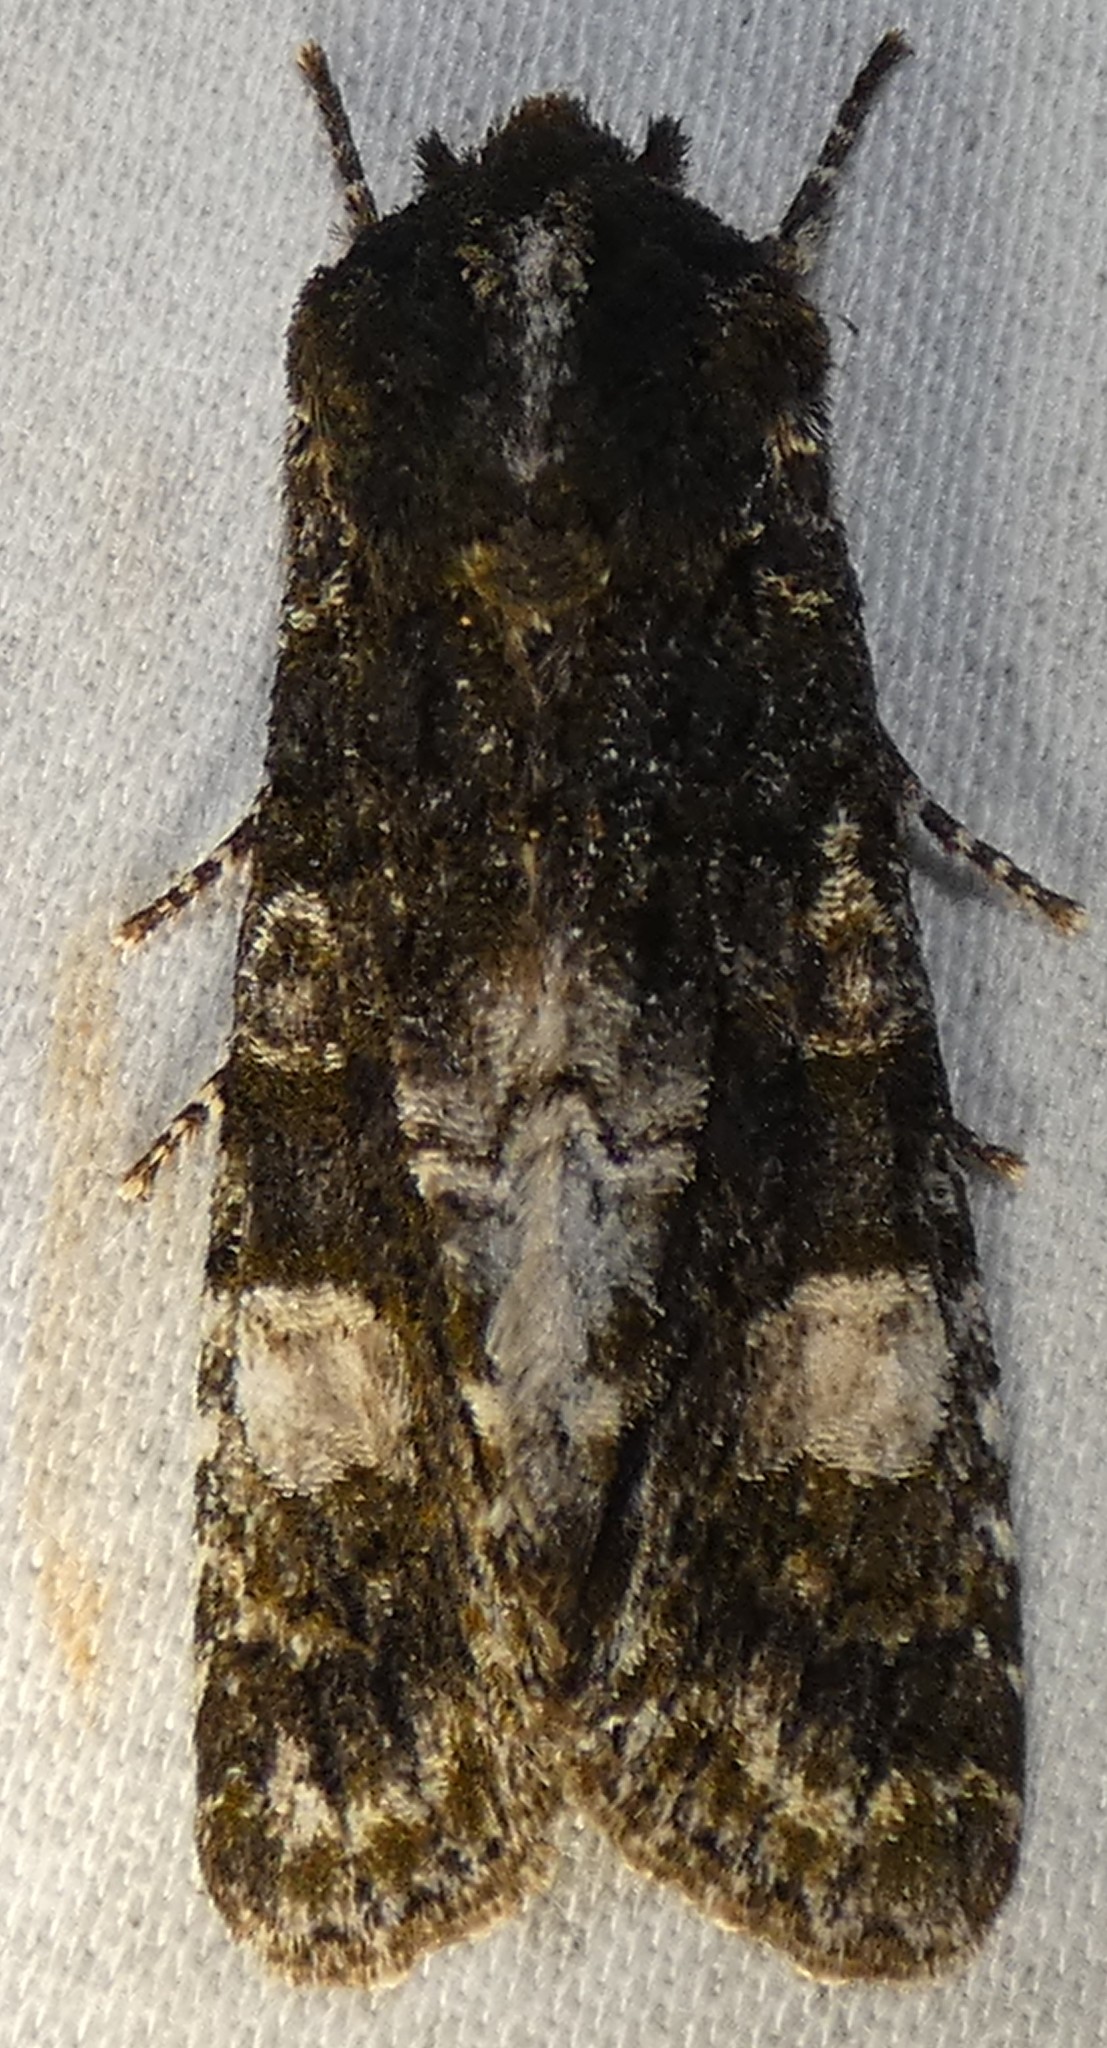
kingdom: Animalia
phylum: Arthropoda
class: Insecta
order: Lepidoptera
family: Noctuidae
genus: Psaphida
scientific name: Psaphida grotei
